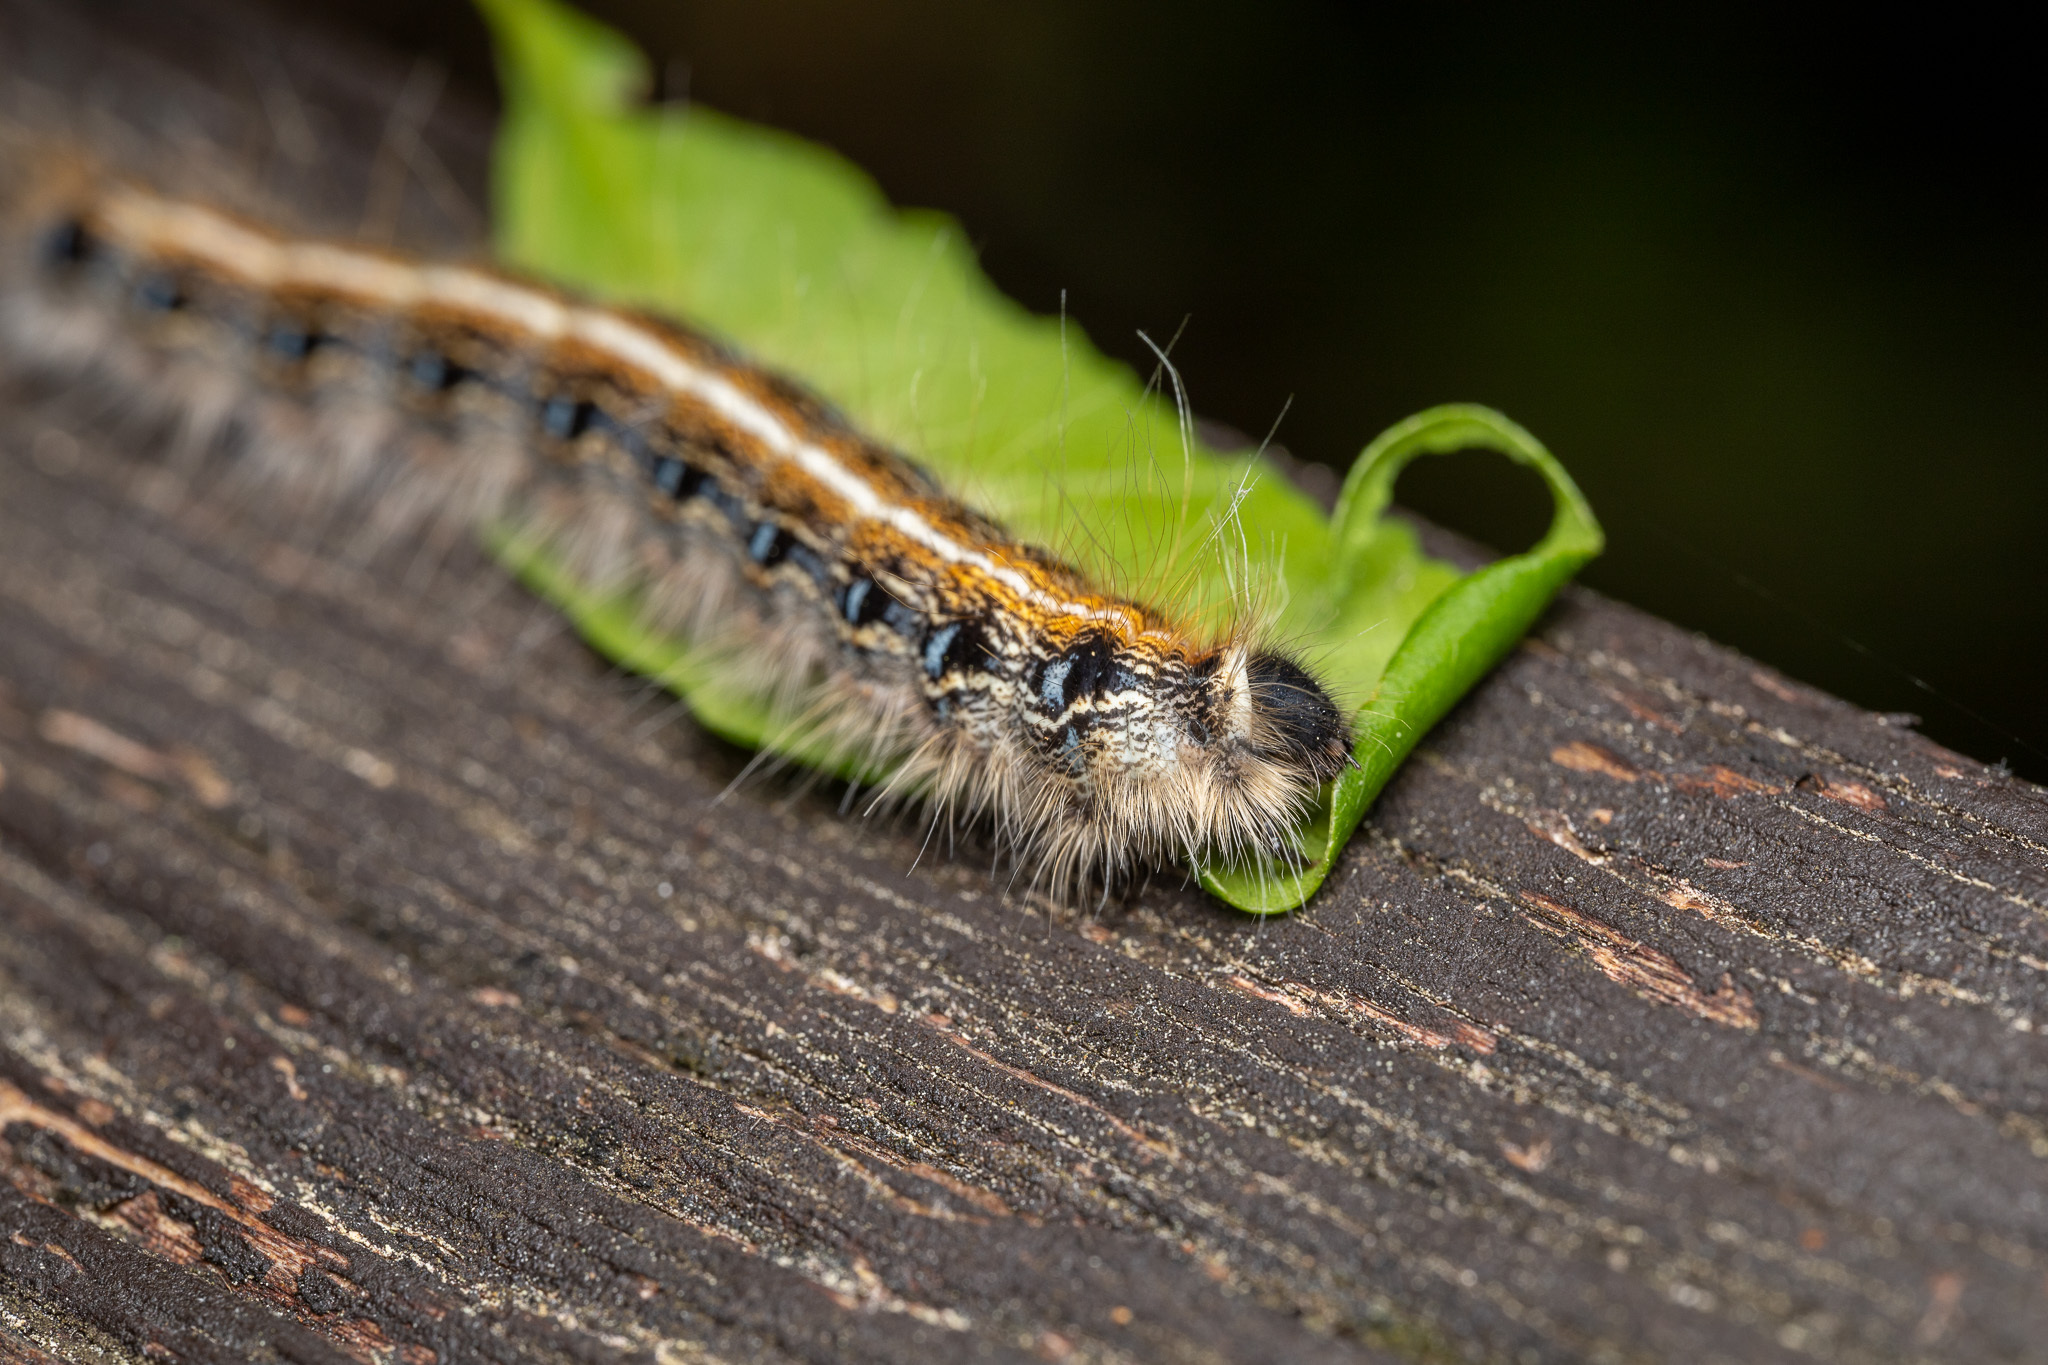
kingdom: Animalia
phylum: Arthropoda
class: Insecta
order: Lepidoptera
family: Lasiocampidae
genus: Malacosoma
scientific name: Malacosoma americana
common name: Eastern tent caterpillar moth
